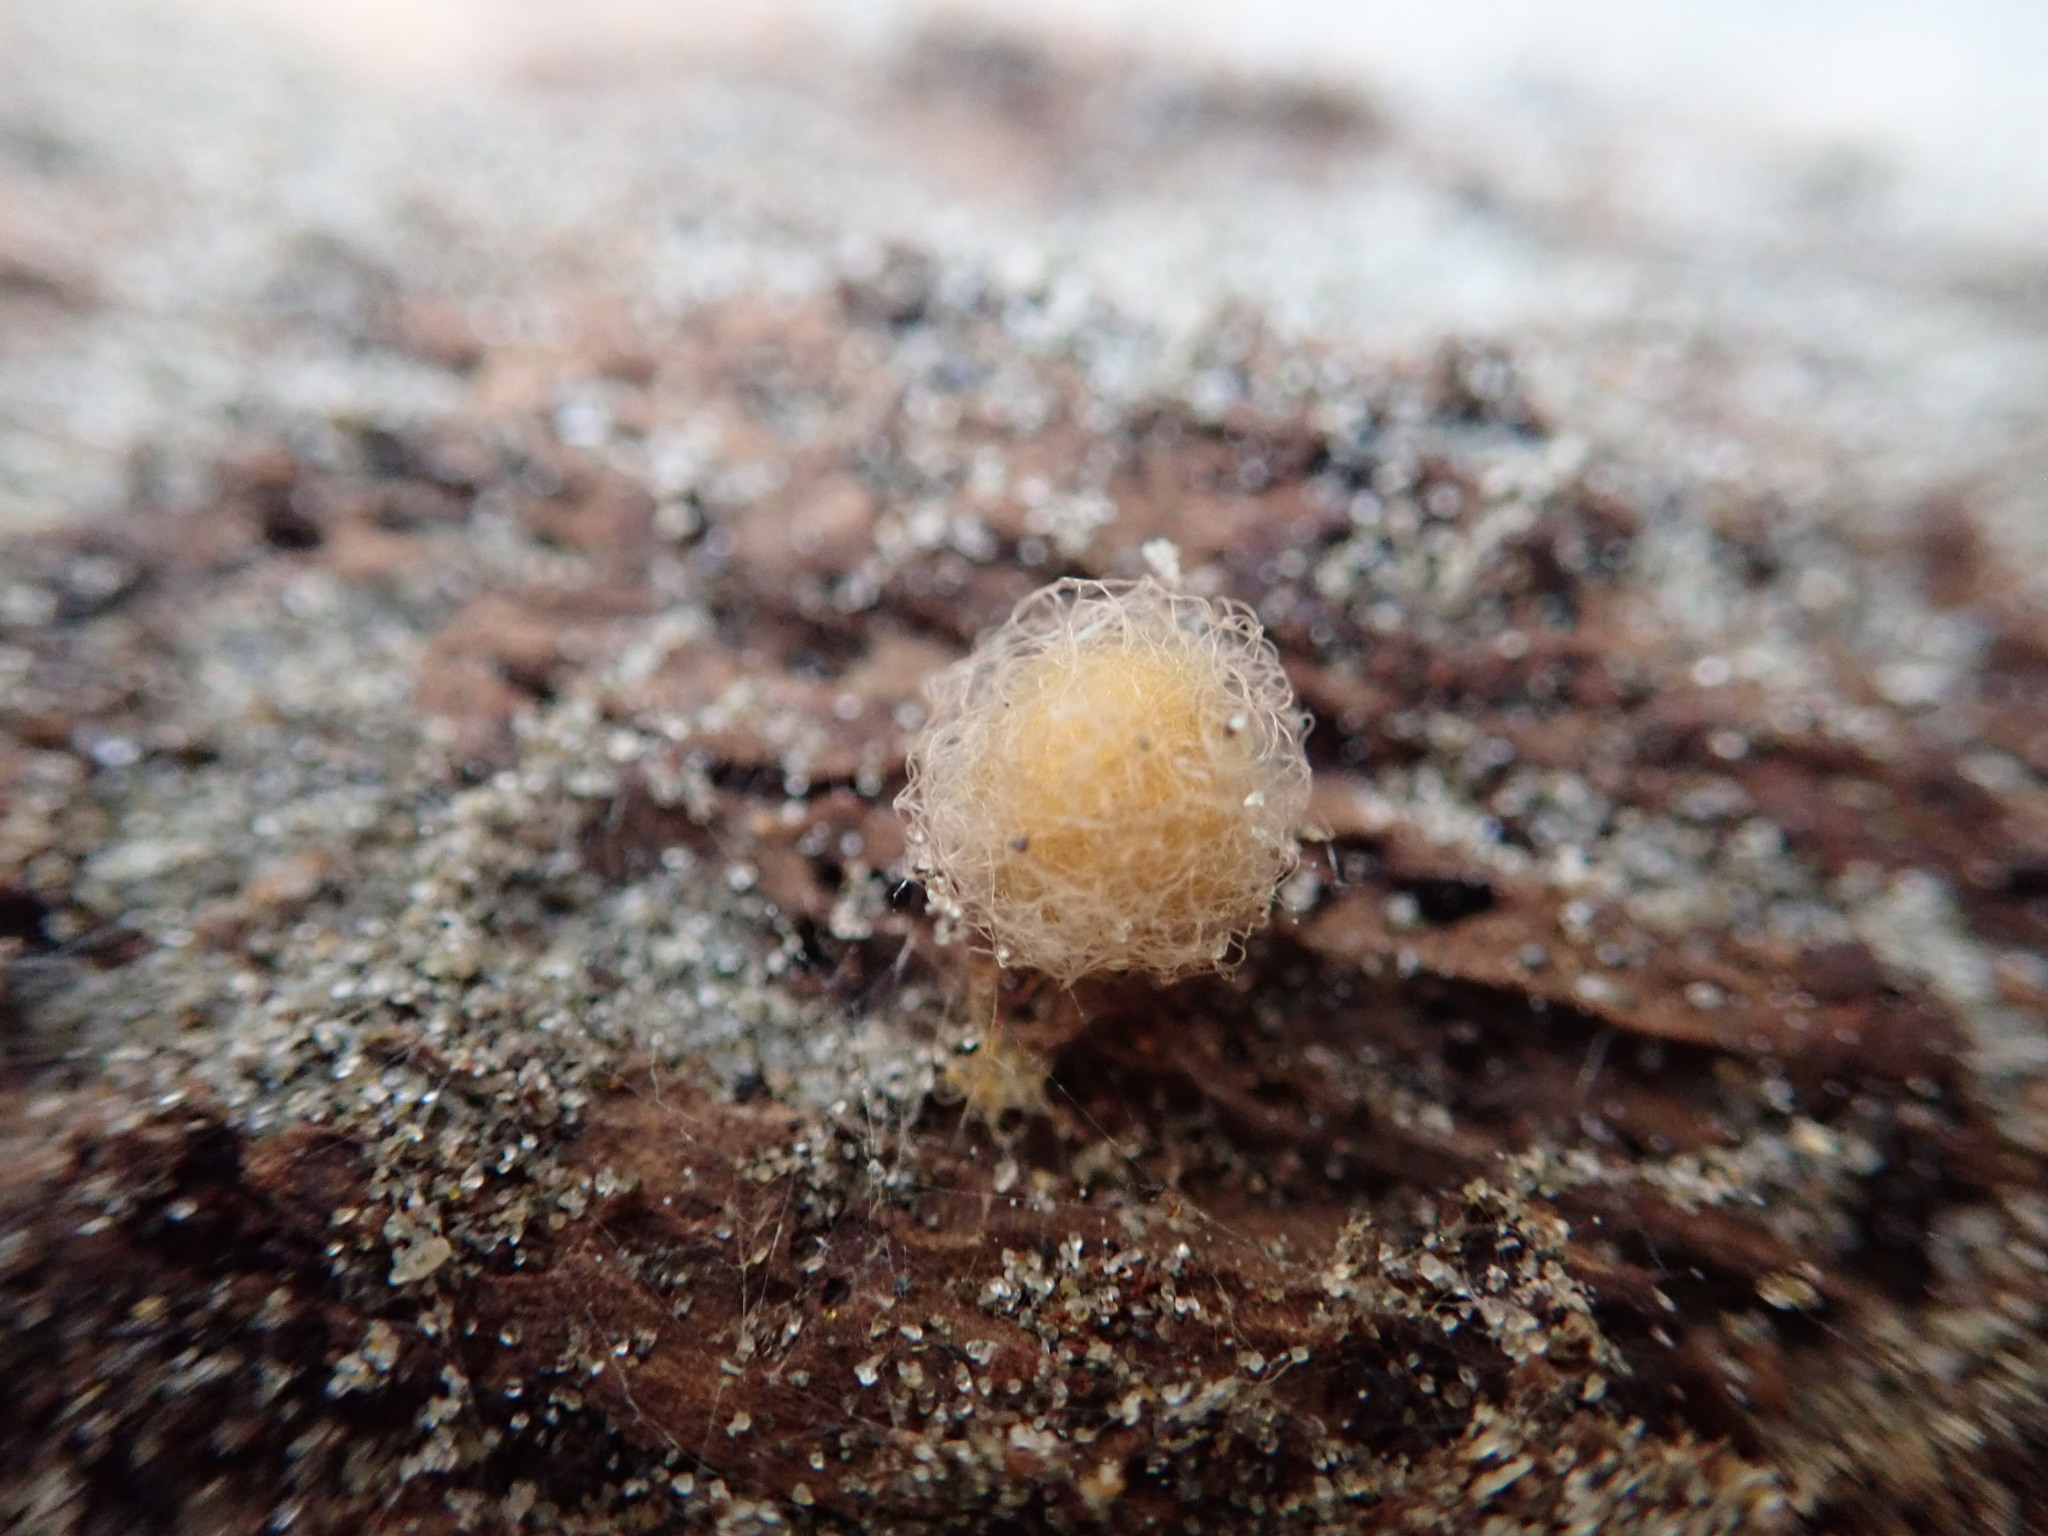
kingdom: Animalia
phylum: Arthropoda
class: Arachnida
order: Araneae
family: Mimetidae
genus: Australomimetus
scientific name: Australomimetus hartleyensis
